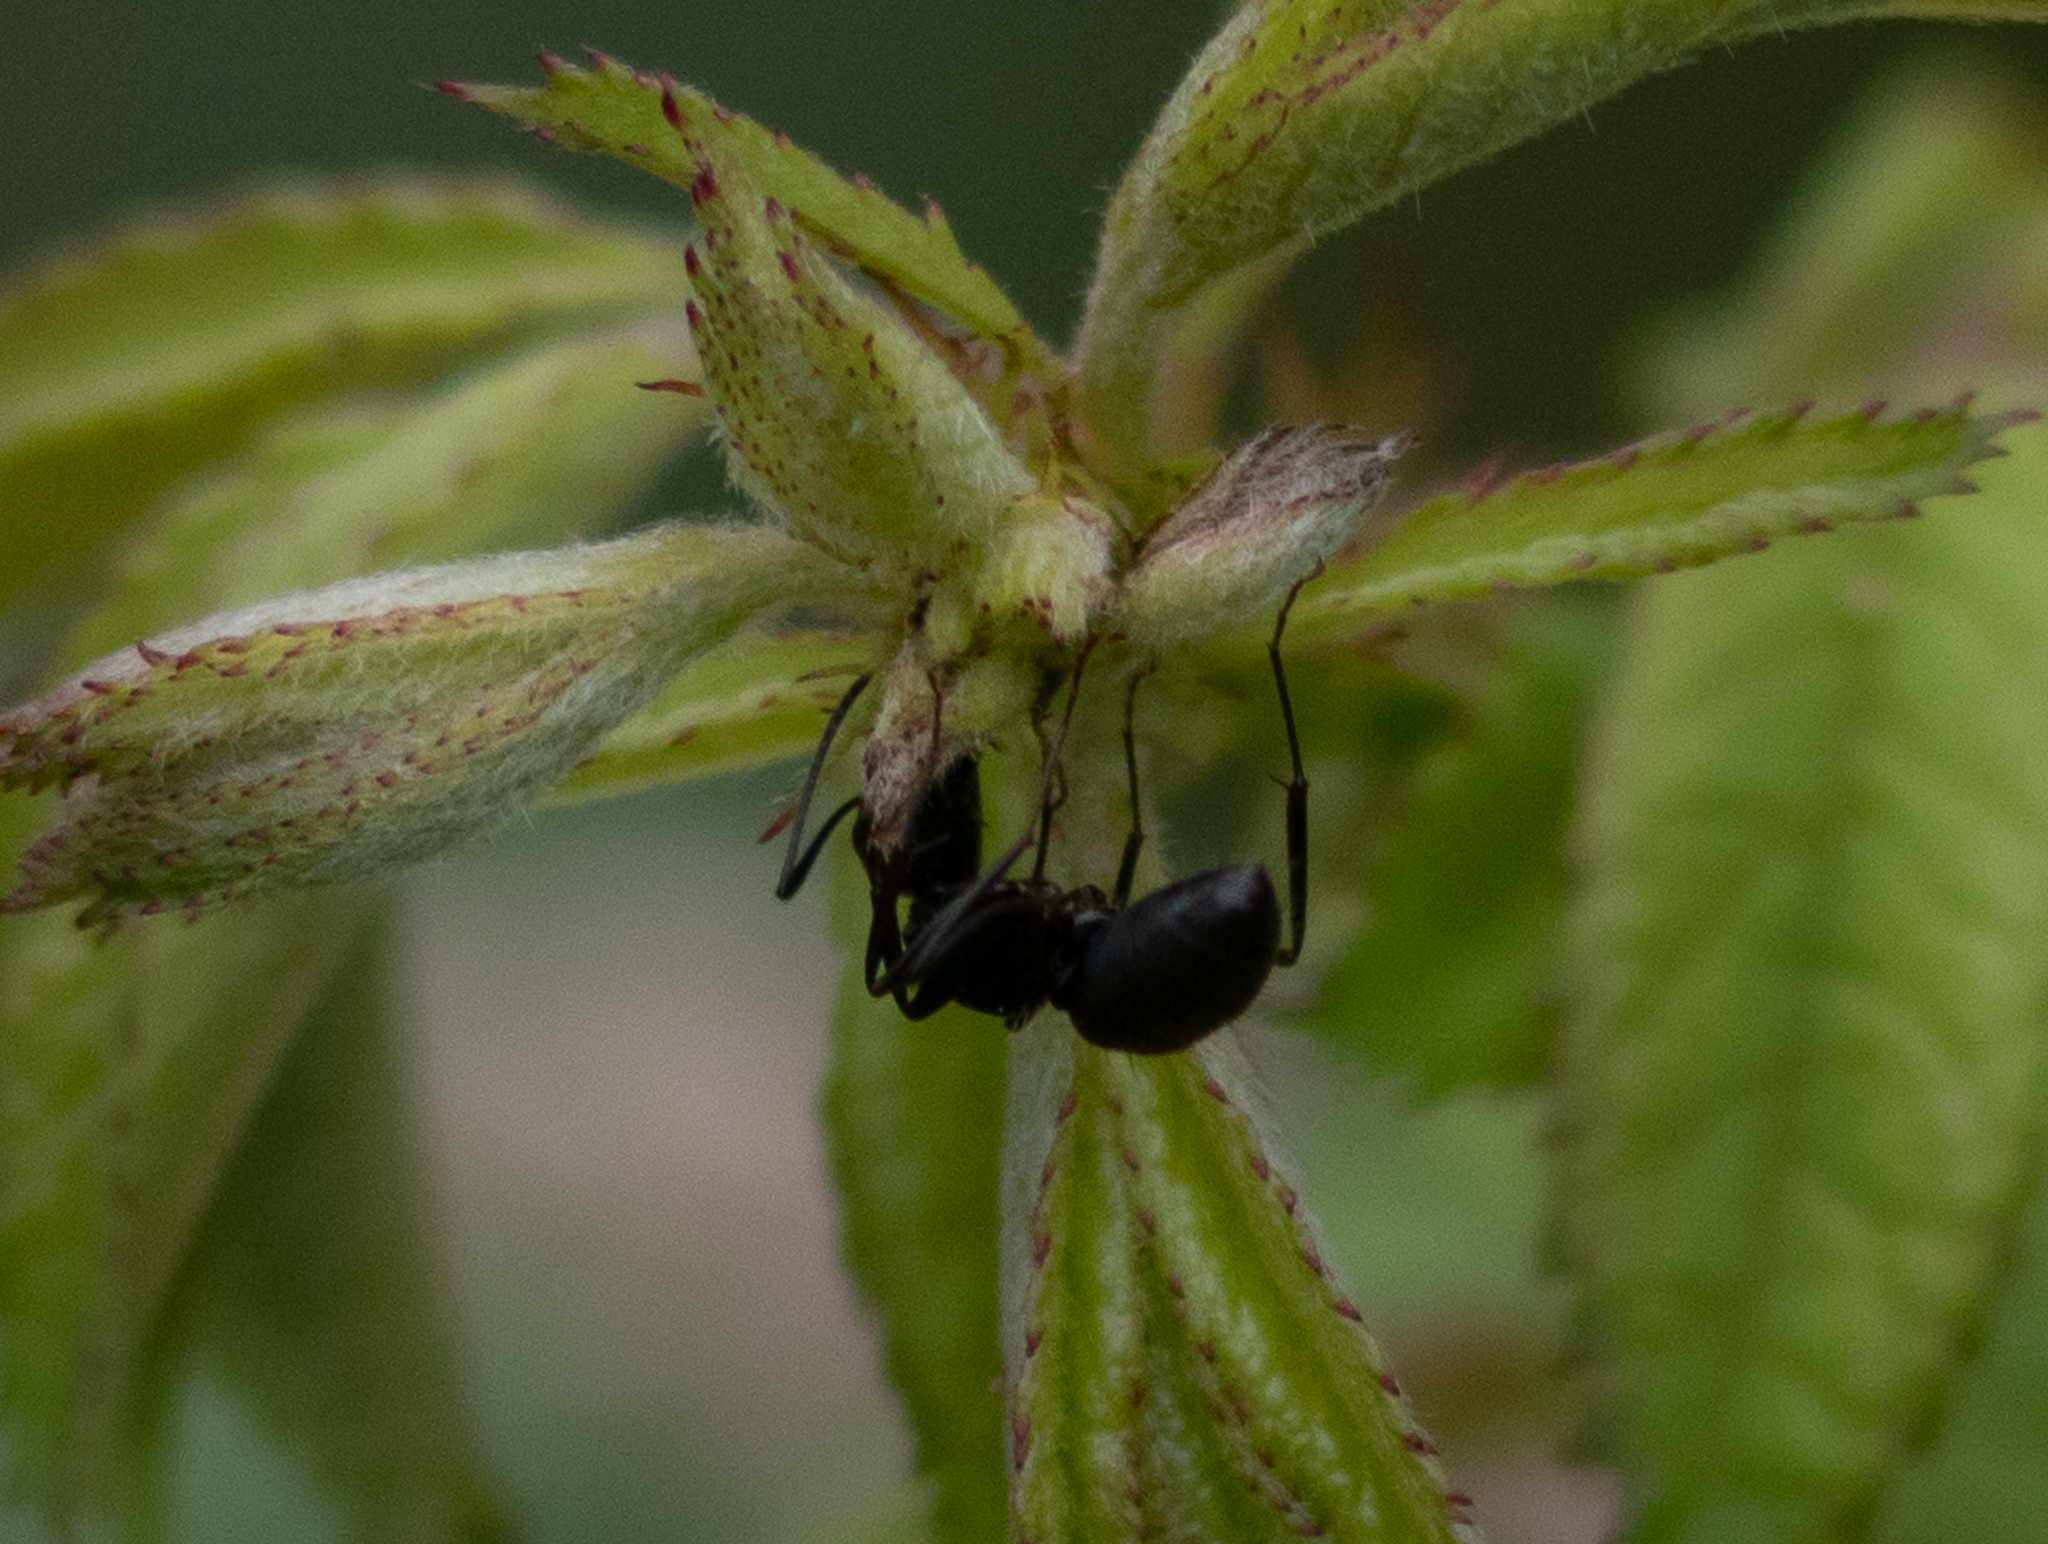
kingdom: Animalia
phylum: Arthropoda
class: Insecta
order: Hymenoptera
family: Formicidae
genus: Camponotus
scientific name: Camponotus pennsylvanicus
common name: Black carpenter ant
